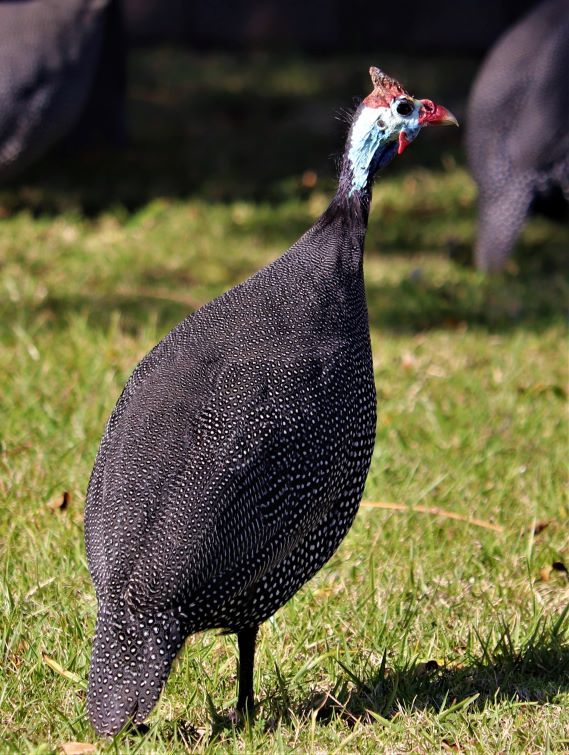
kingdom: Animalia
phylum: Chordata
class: Aves
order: Galliformes
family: Numididae
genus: Numida
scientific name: Numida meleagris
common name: Helmeted guineafowl
